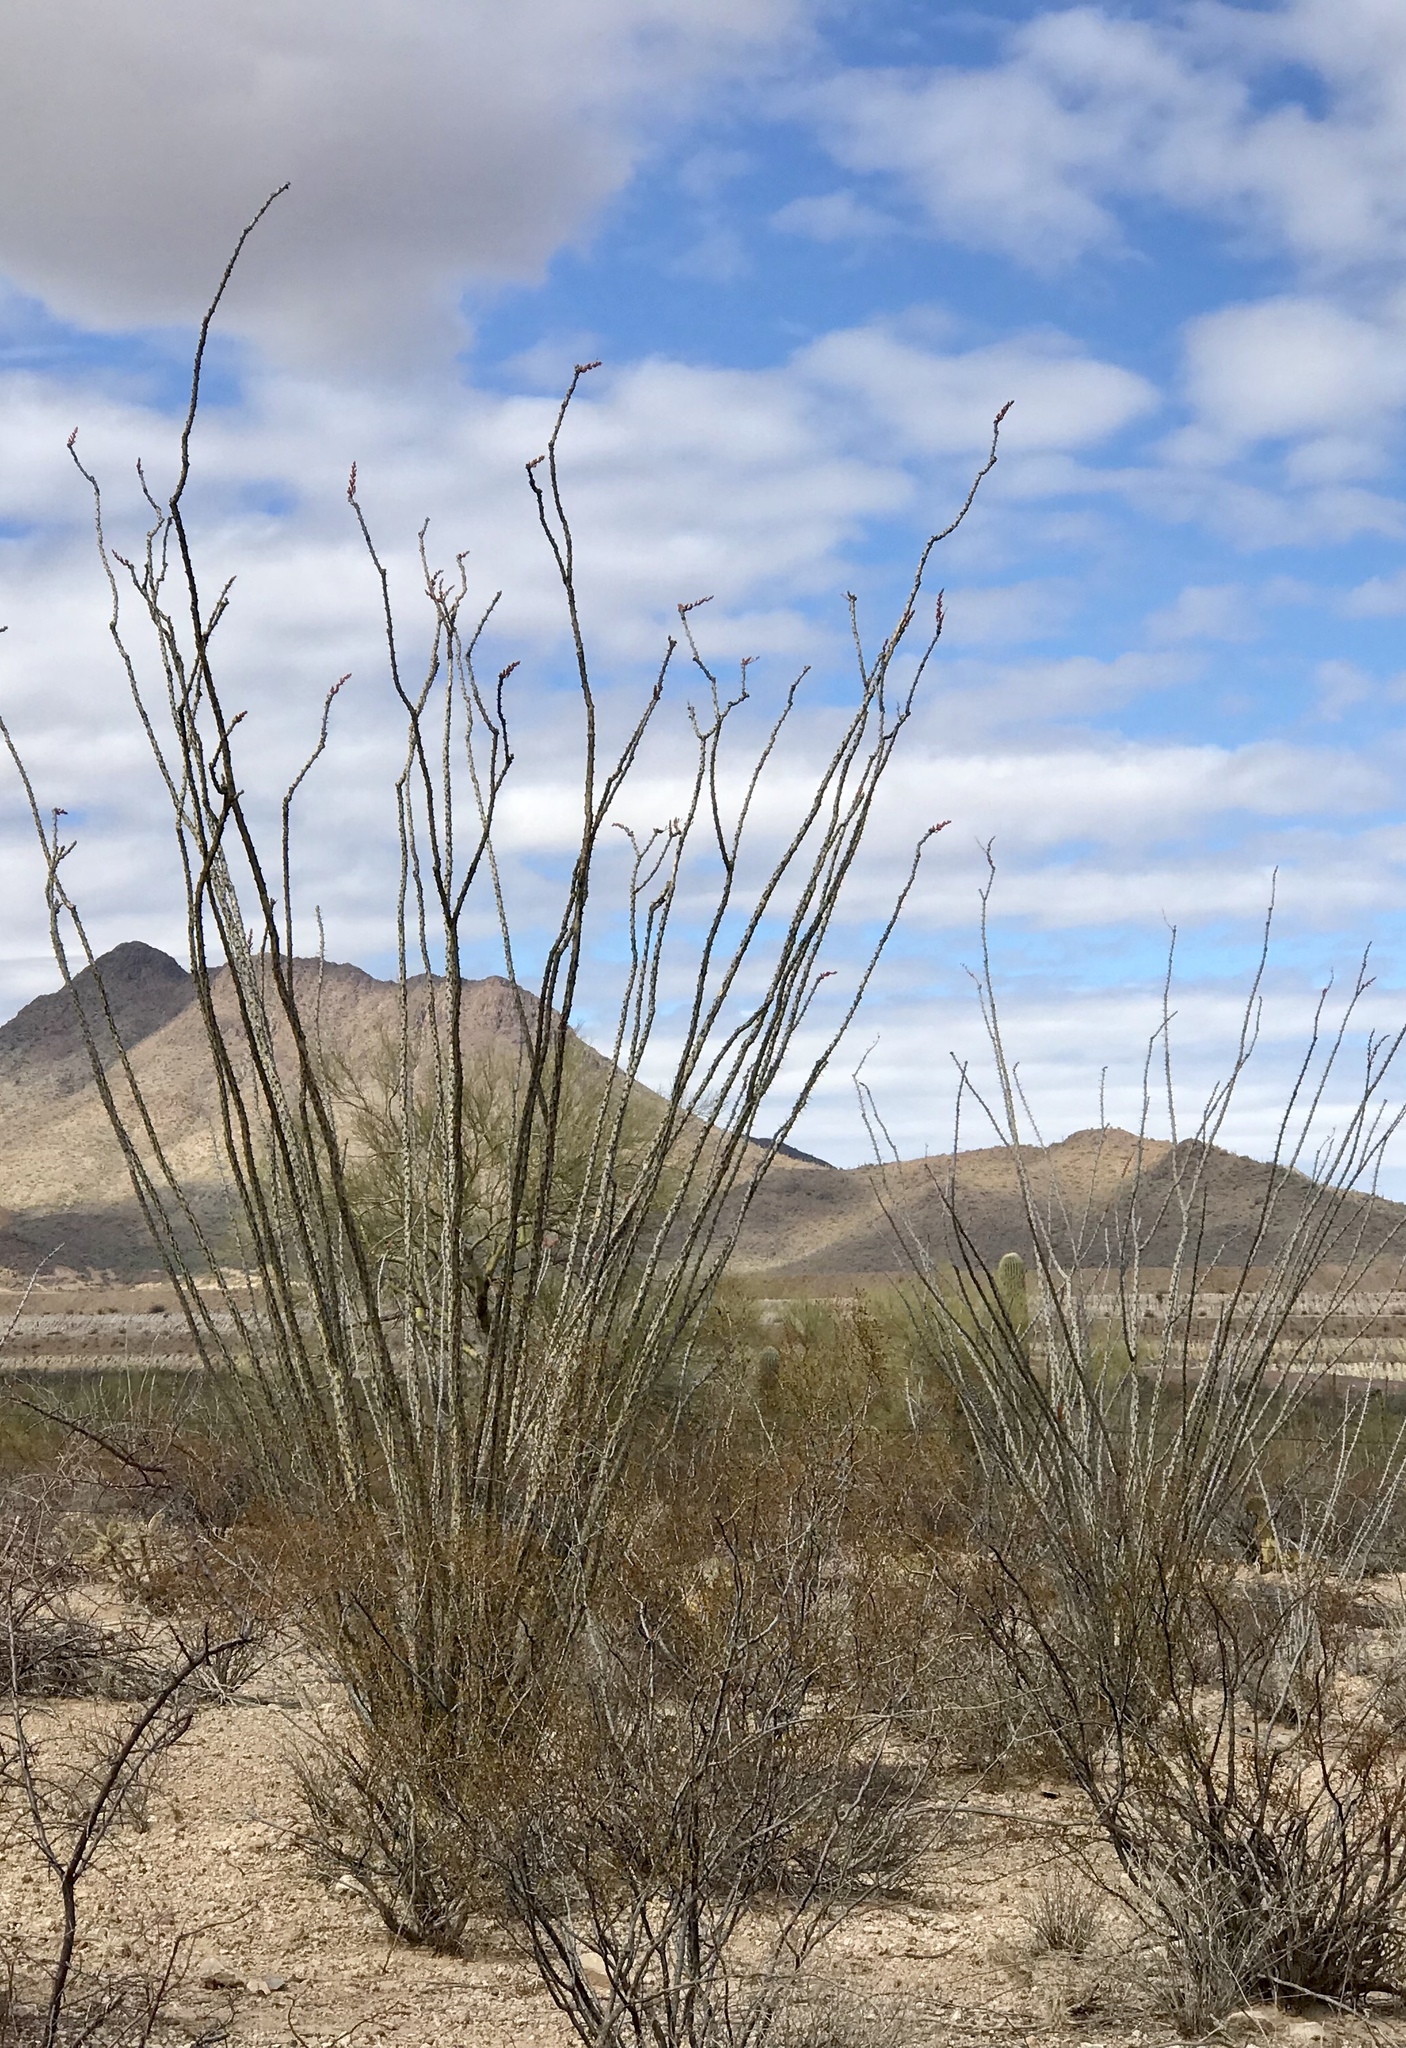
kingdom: Plantae
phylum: Tracheophyta
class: Magnoliopsida
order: Ericales
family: Fouquieriaceae
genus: Fouquieria
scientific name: Fouquieria splendens
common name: Vine-cactus
